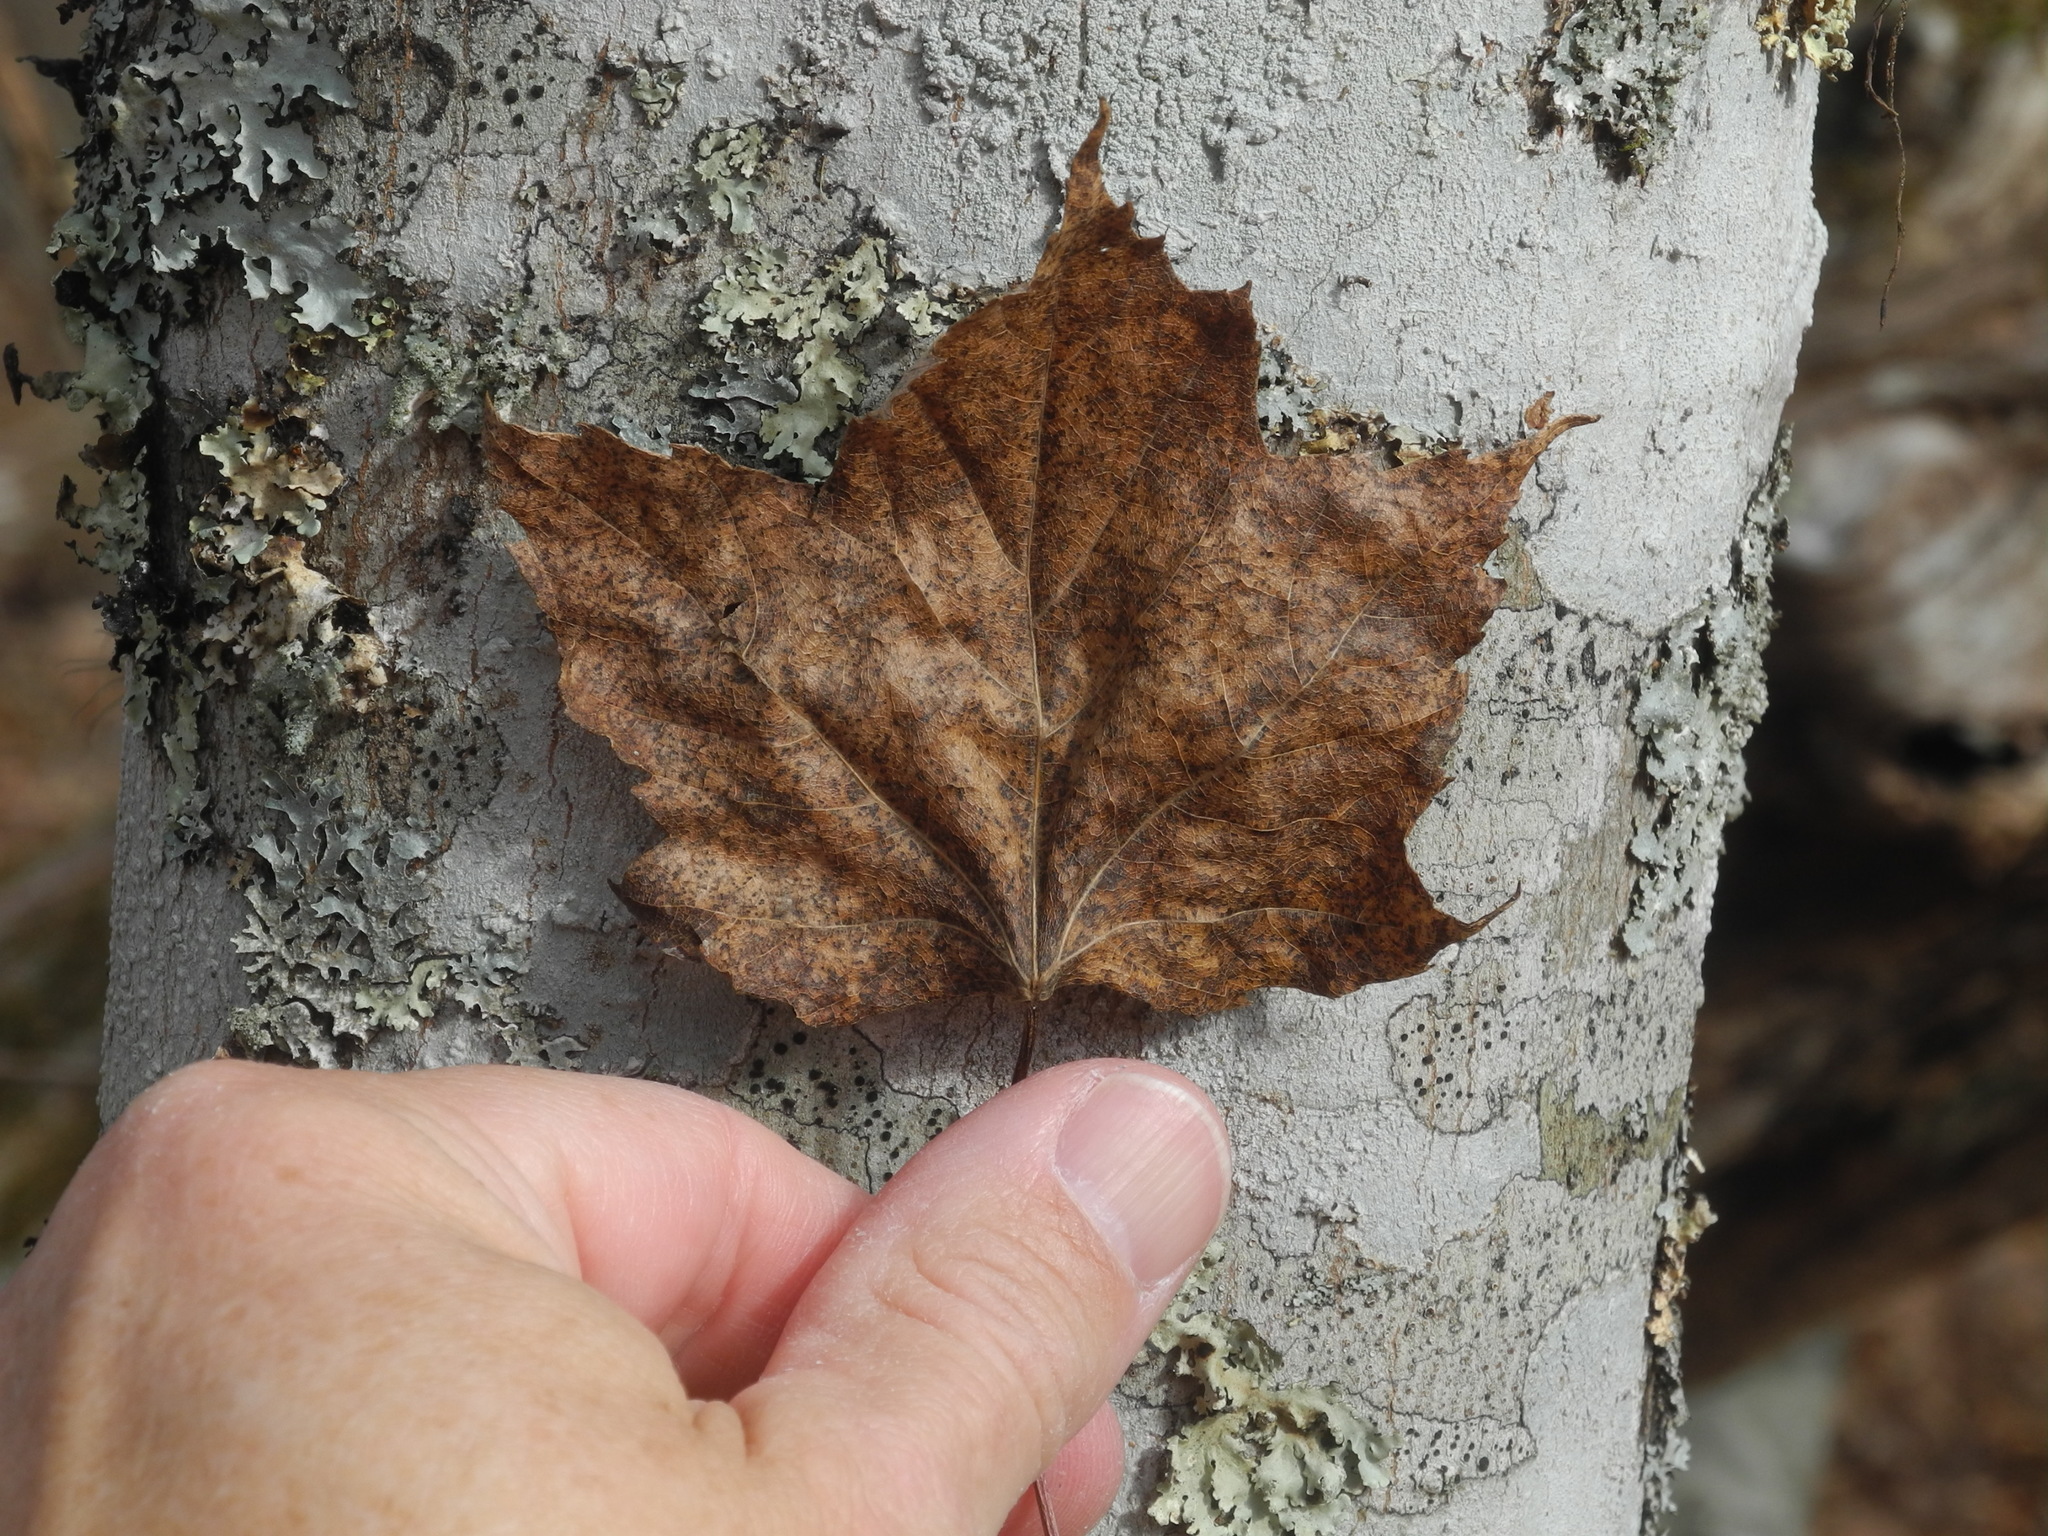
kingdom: Plantae
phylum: Tracheophyta
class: Magnoliopsida
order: Sapindales
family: Sapindaceae
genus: Acer
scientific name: Acer freemanii
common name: Freeman maple
